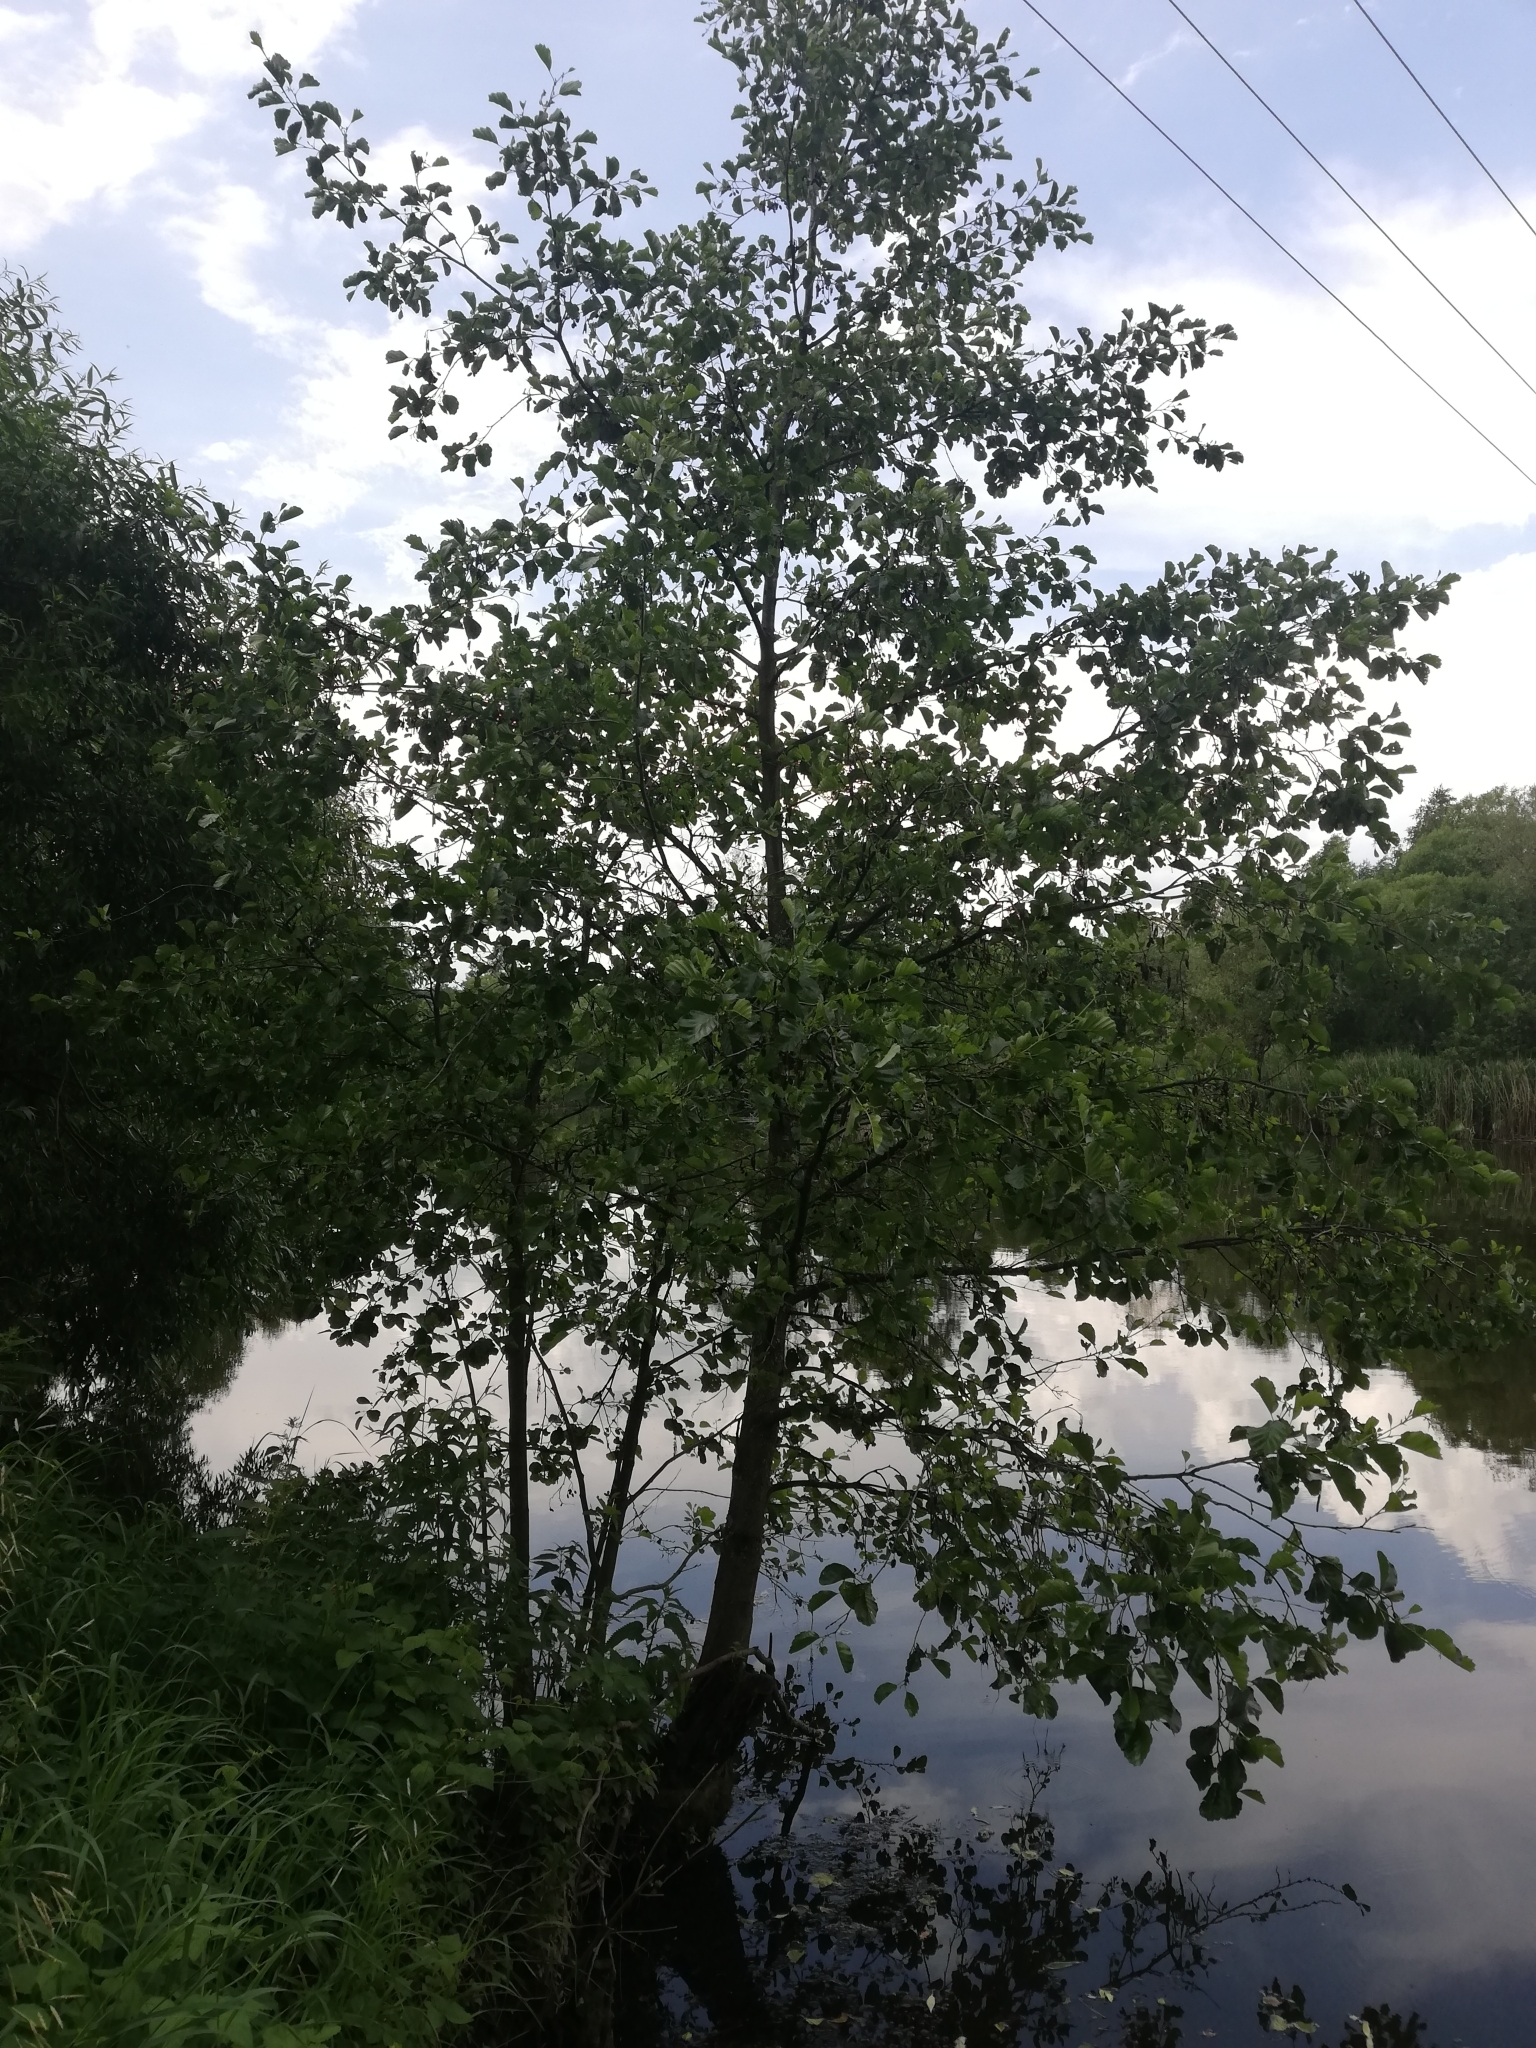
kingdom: Plantae
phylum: Tracheophyta
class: Magnoliopsida
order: Fagales
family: Betulaceae
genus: Alnus
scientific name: Alnus glutinosa
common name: Black alder
